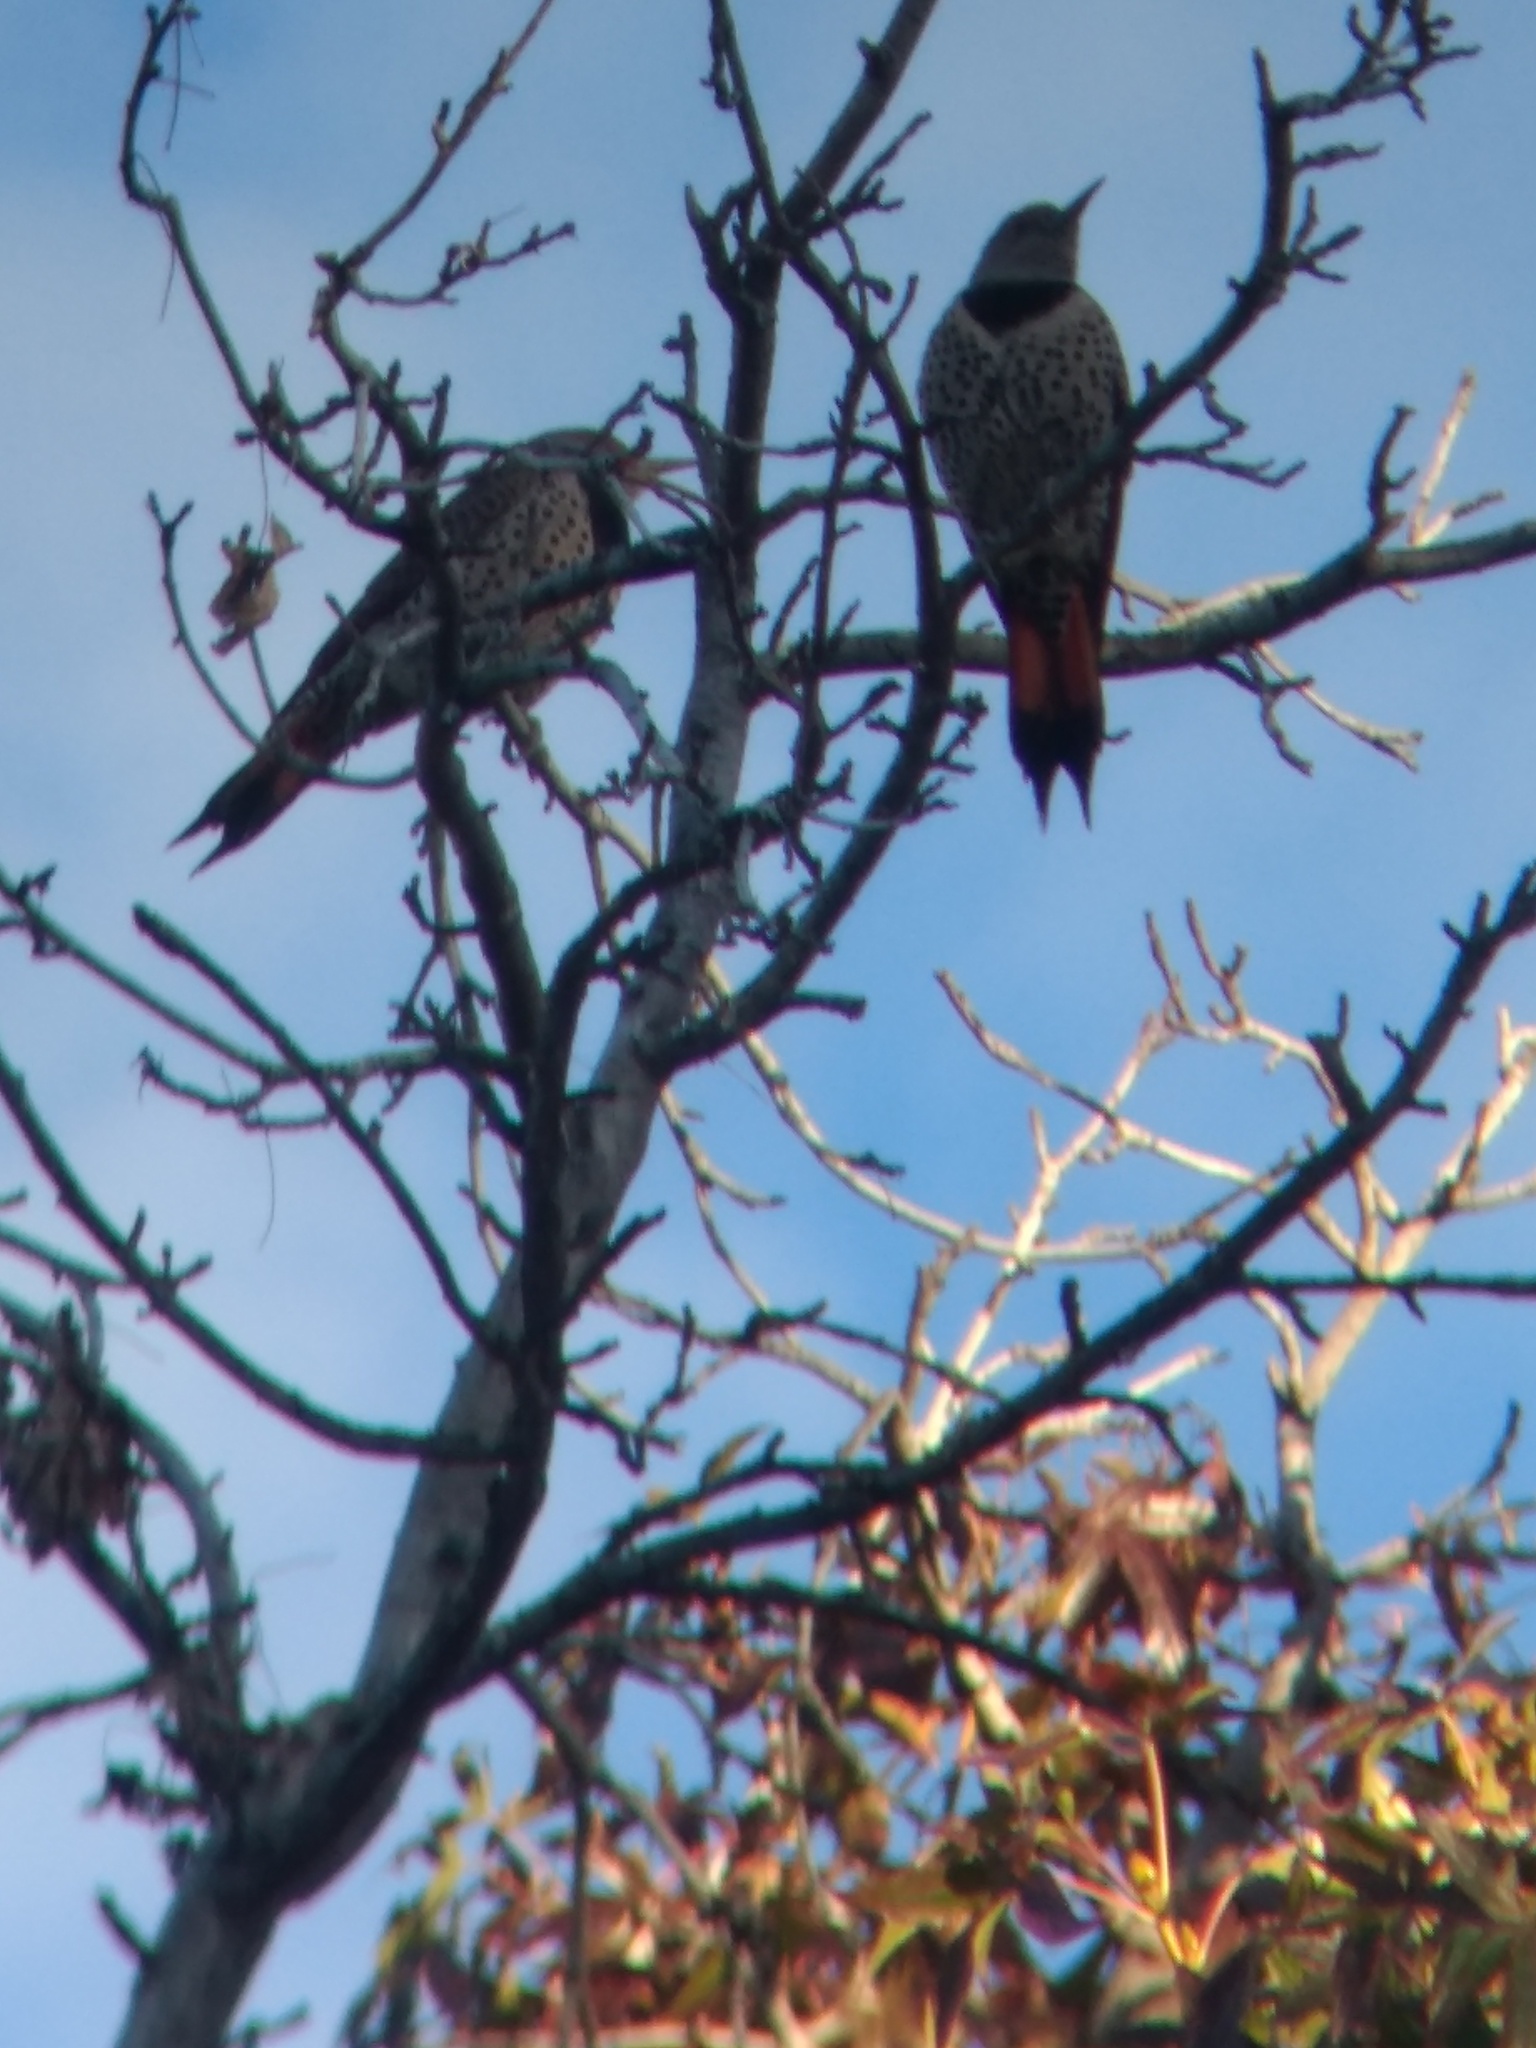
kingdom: Animalia
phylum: Chordata
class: Aves
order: Piciformes
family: Picidae
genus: Colaptes
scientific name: Colaptes auratus
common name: Northern flicker
